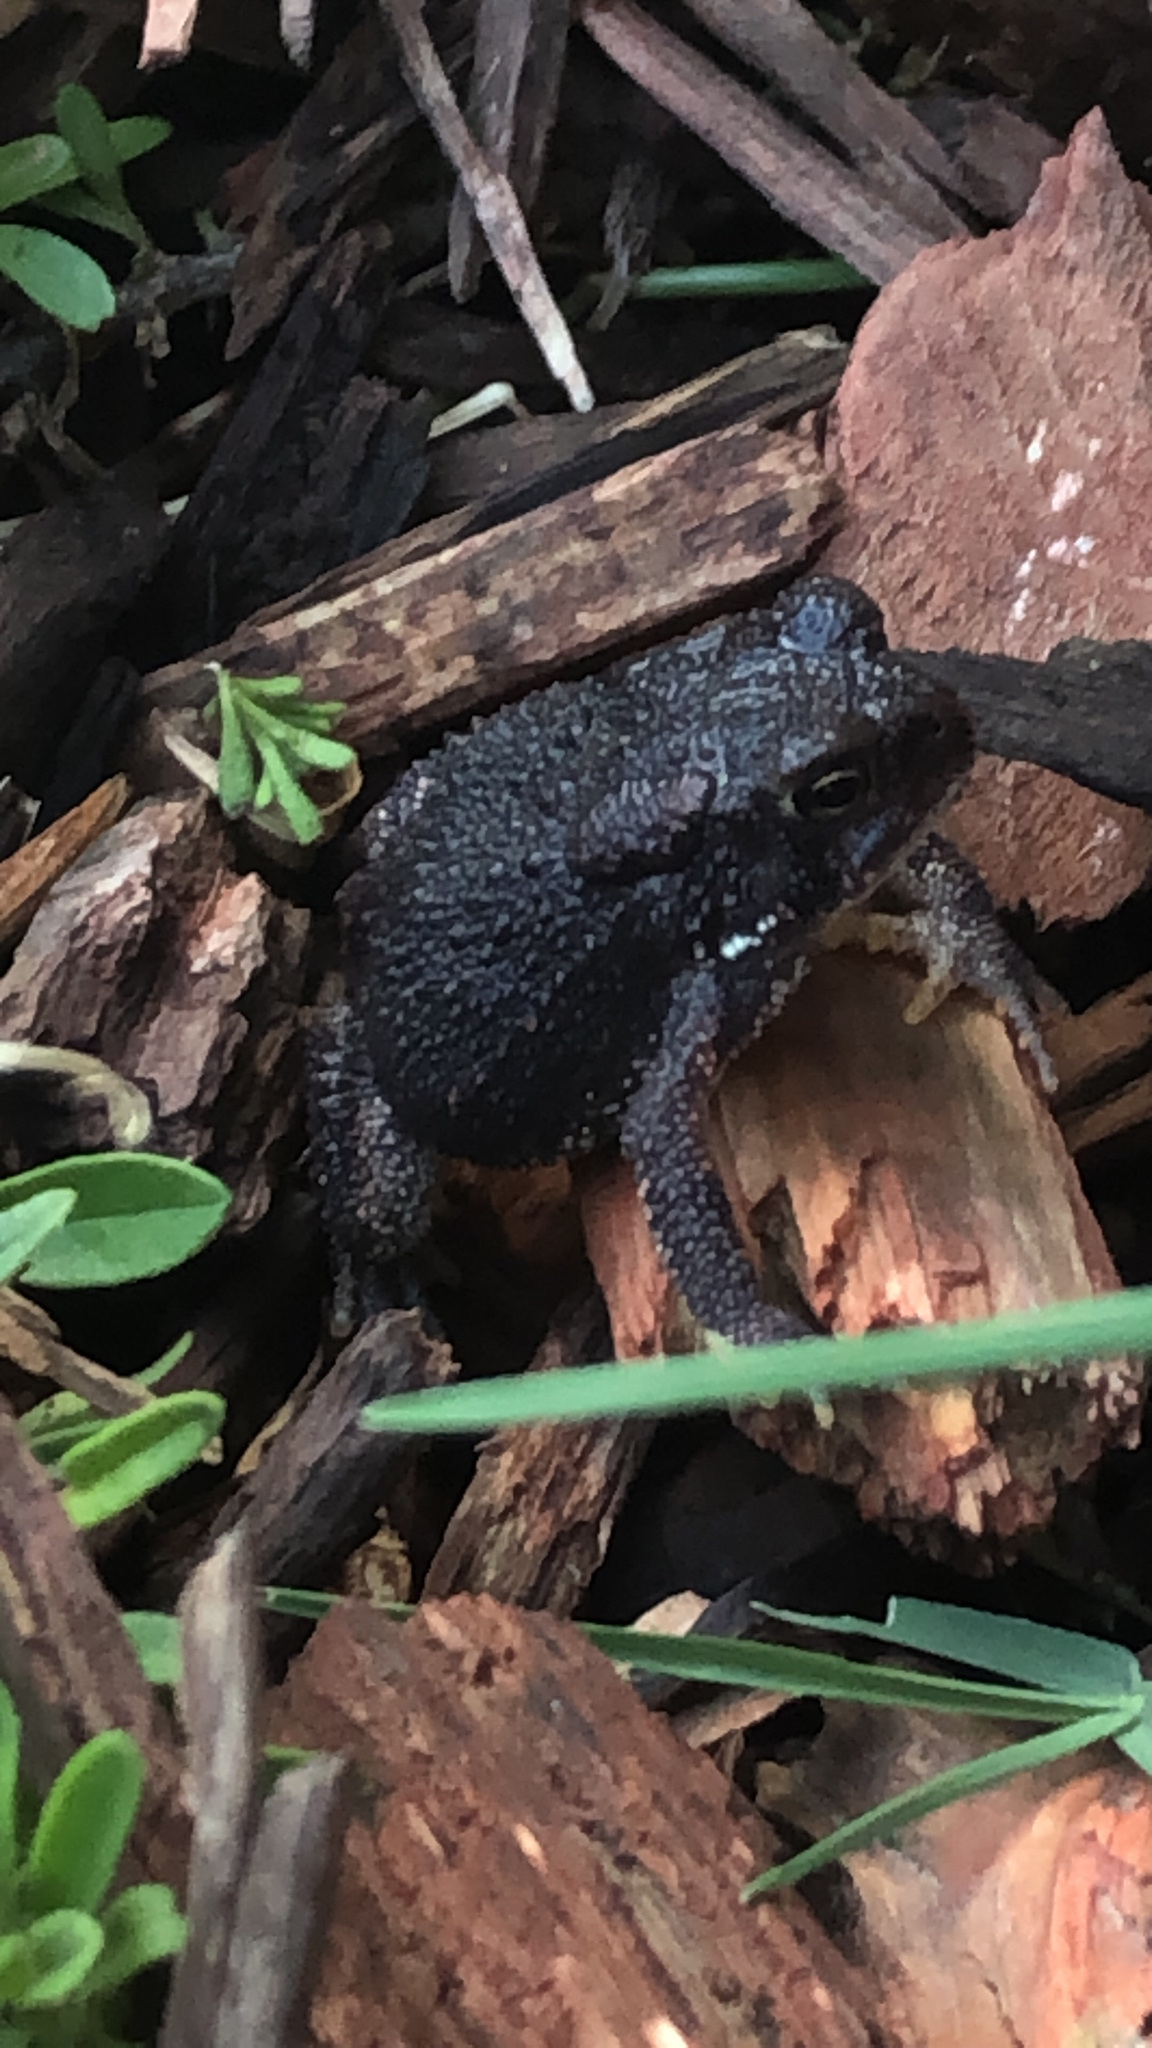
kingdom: Animalia
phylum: Chordata
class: Amphibia
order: Anura
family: Bufonidae
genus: Anaxyrus
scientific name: Anaxyrus americanus
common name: American toad
